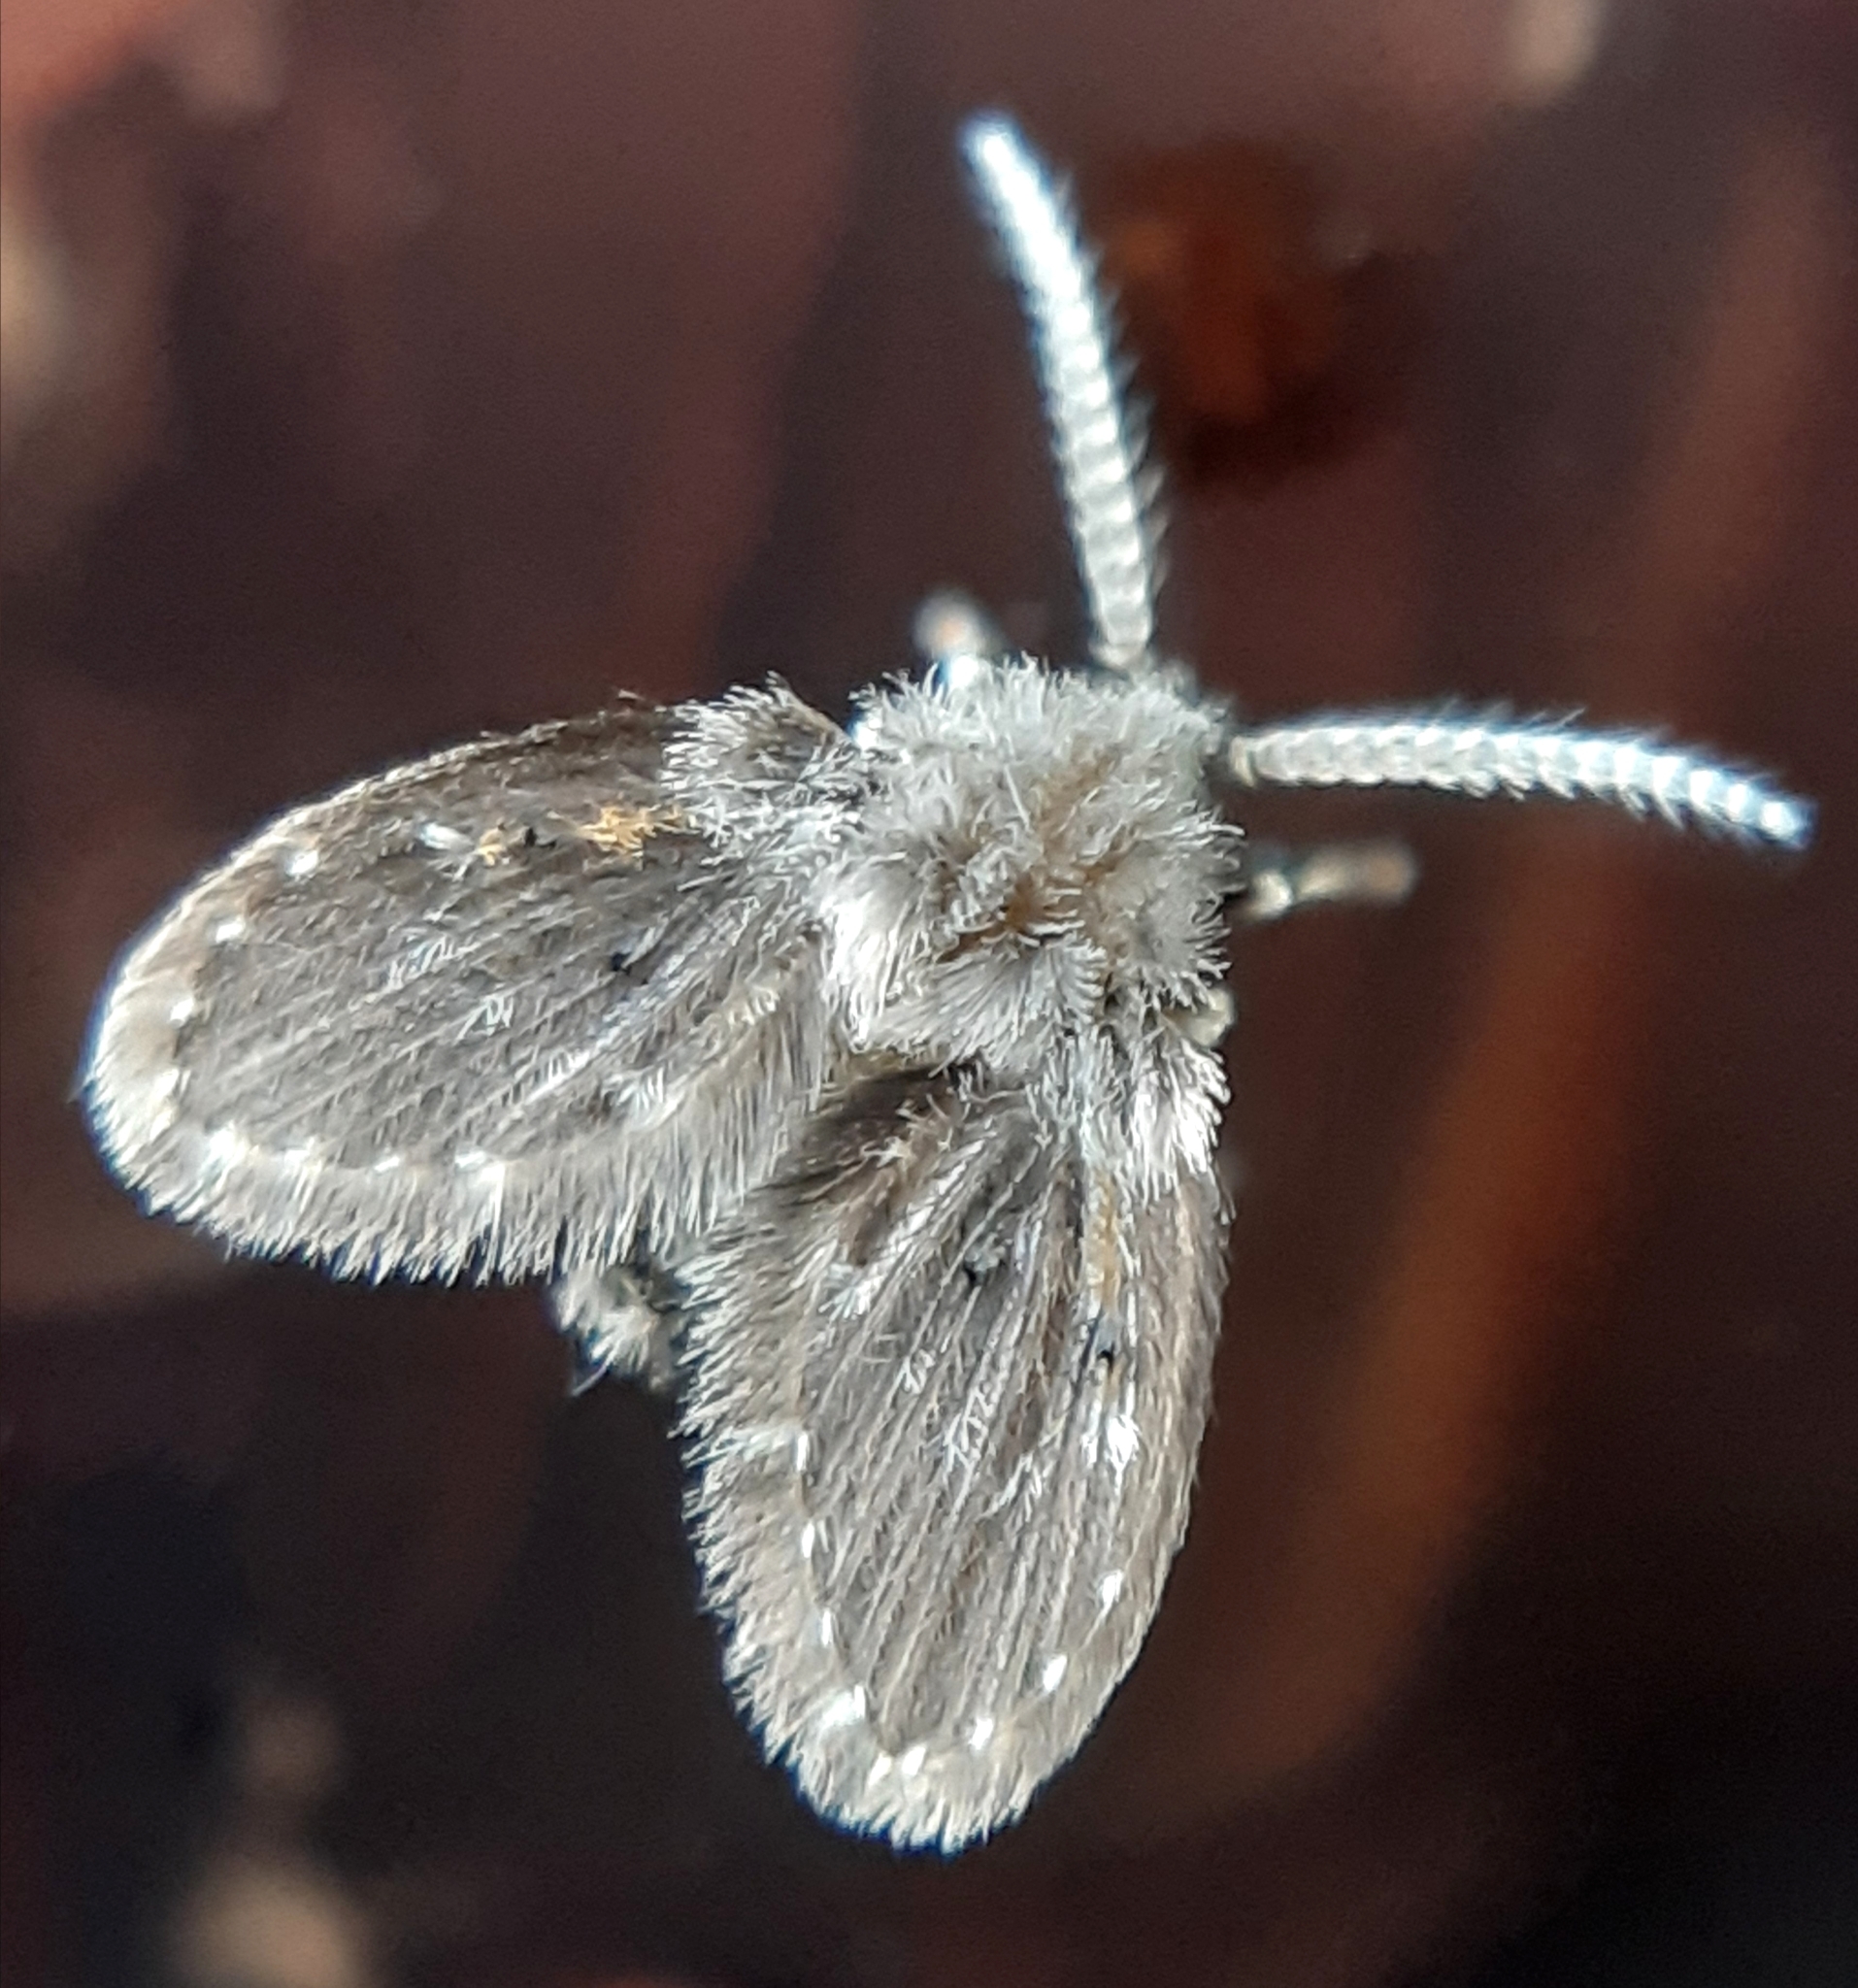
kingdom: Animalia
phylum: Arthropoda
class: Insecta
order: Diptera
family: Psychodidae
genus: Clogmia
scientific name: Clogmia albipunctatus
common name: White-spotted moth fly
